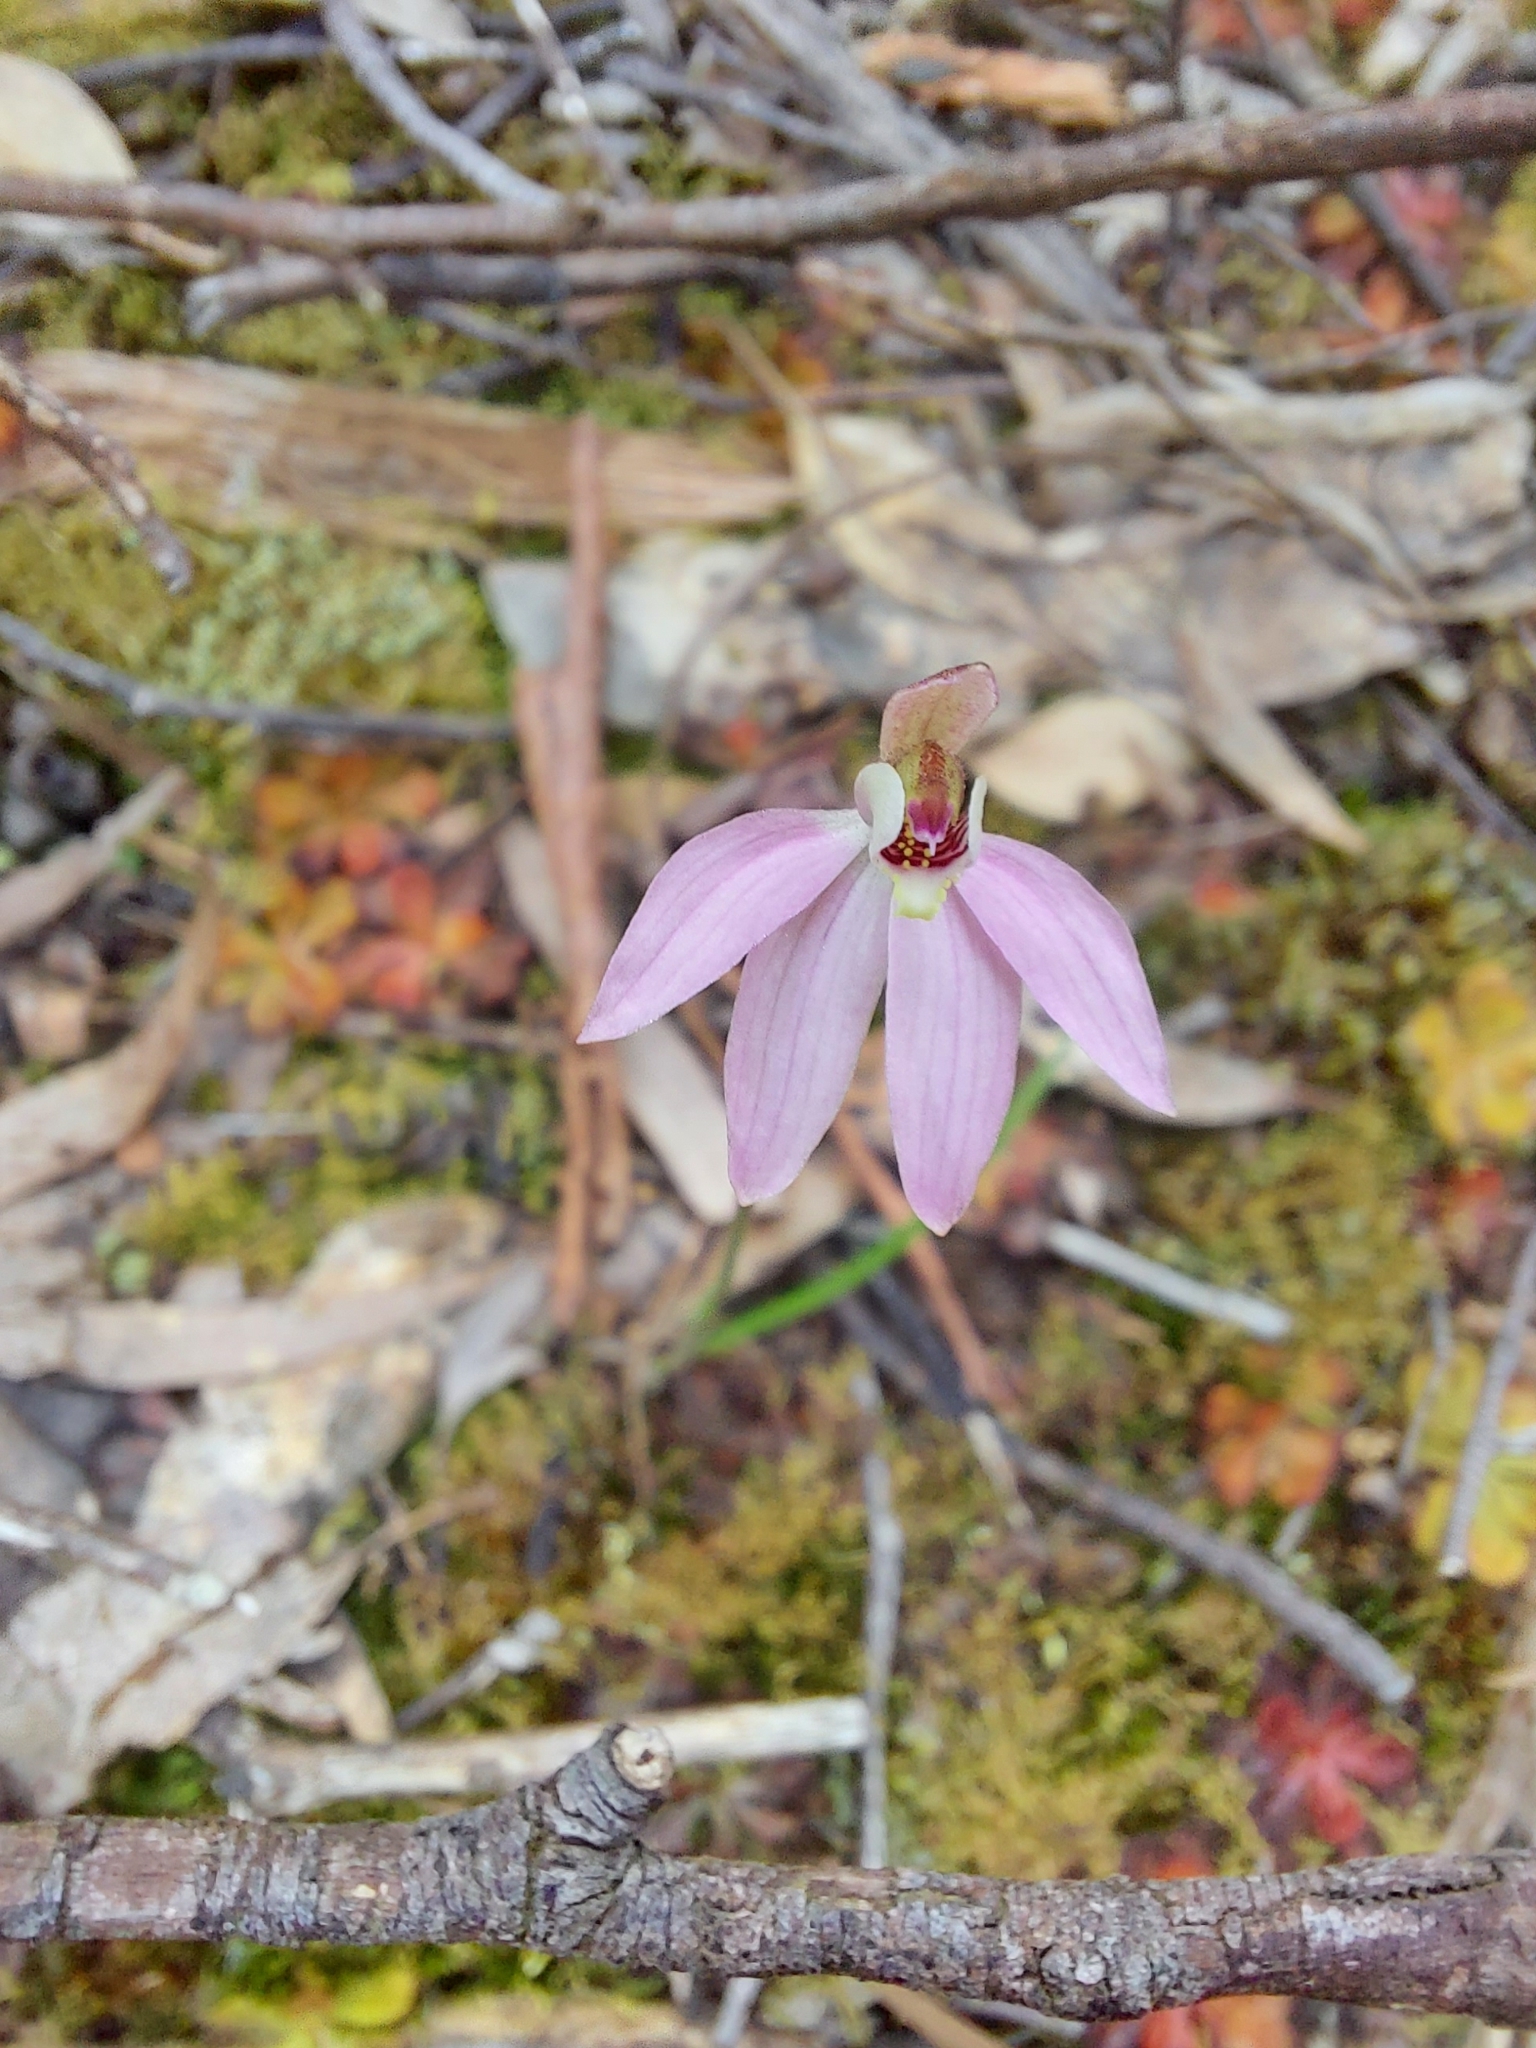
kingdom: Plantae
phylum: Tracheophyta
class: Liliopsida
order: Asparagales
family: Orchidaceae
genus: Caladenia
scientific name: Caladenia carnea
